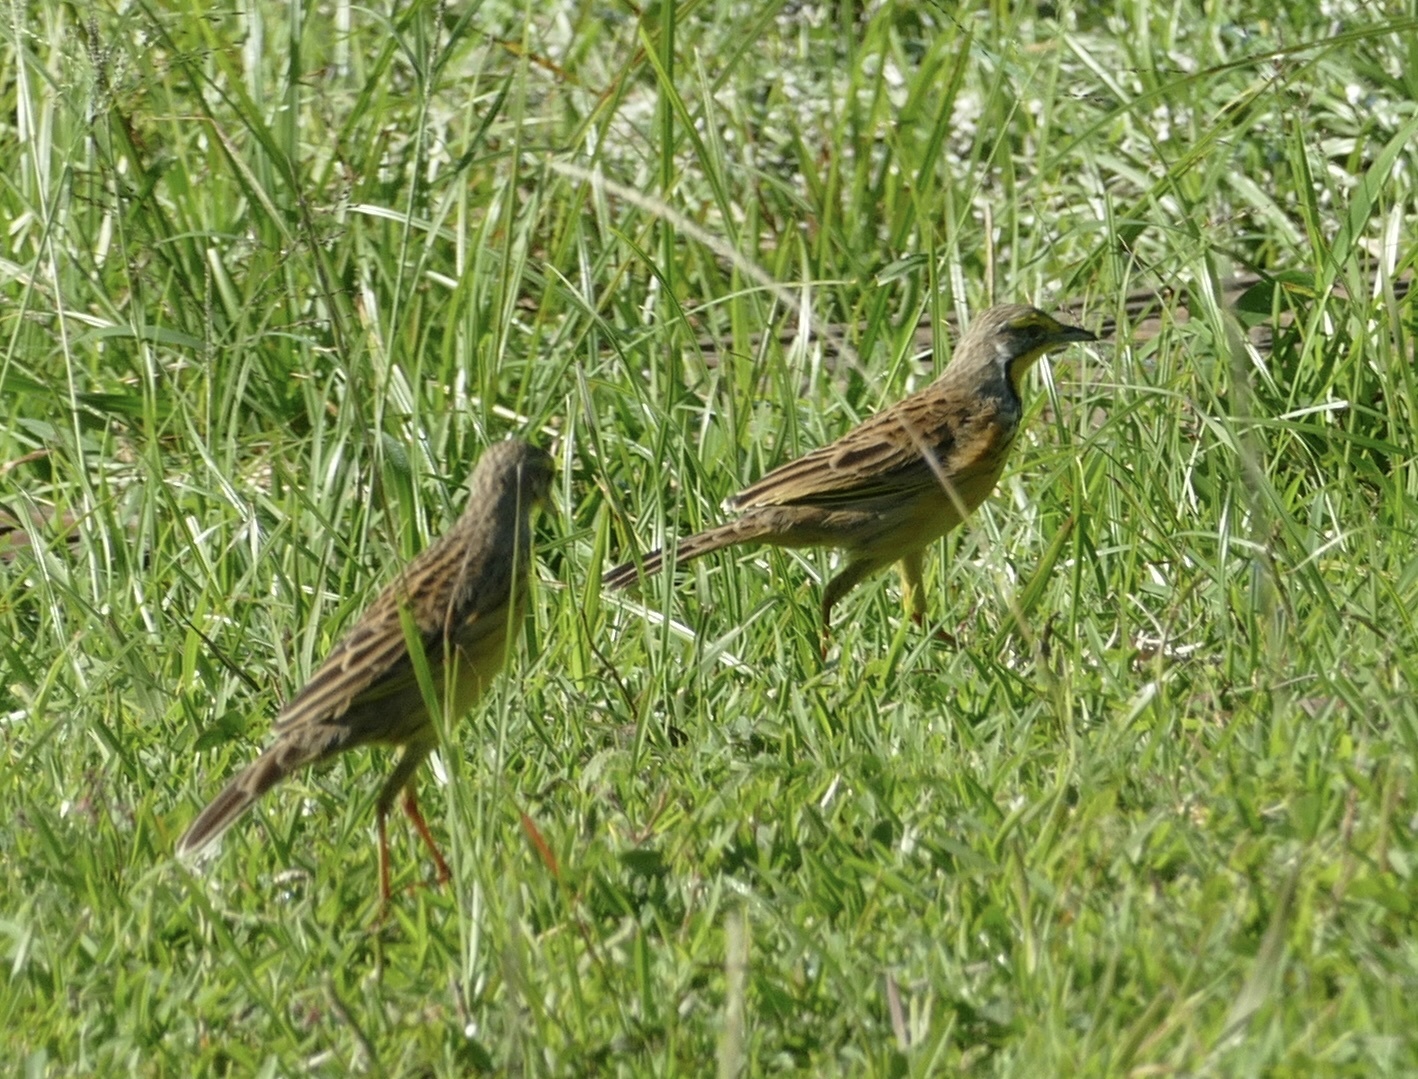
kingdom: Animalia
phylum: Chordata
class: Aves
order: Passeriformes
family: Motacillidae
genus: Macronyx
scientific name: Macronyx croceus
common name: Yellow-throated longclaw
